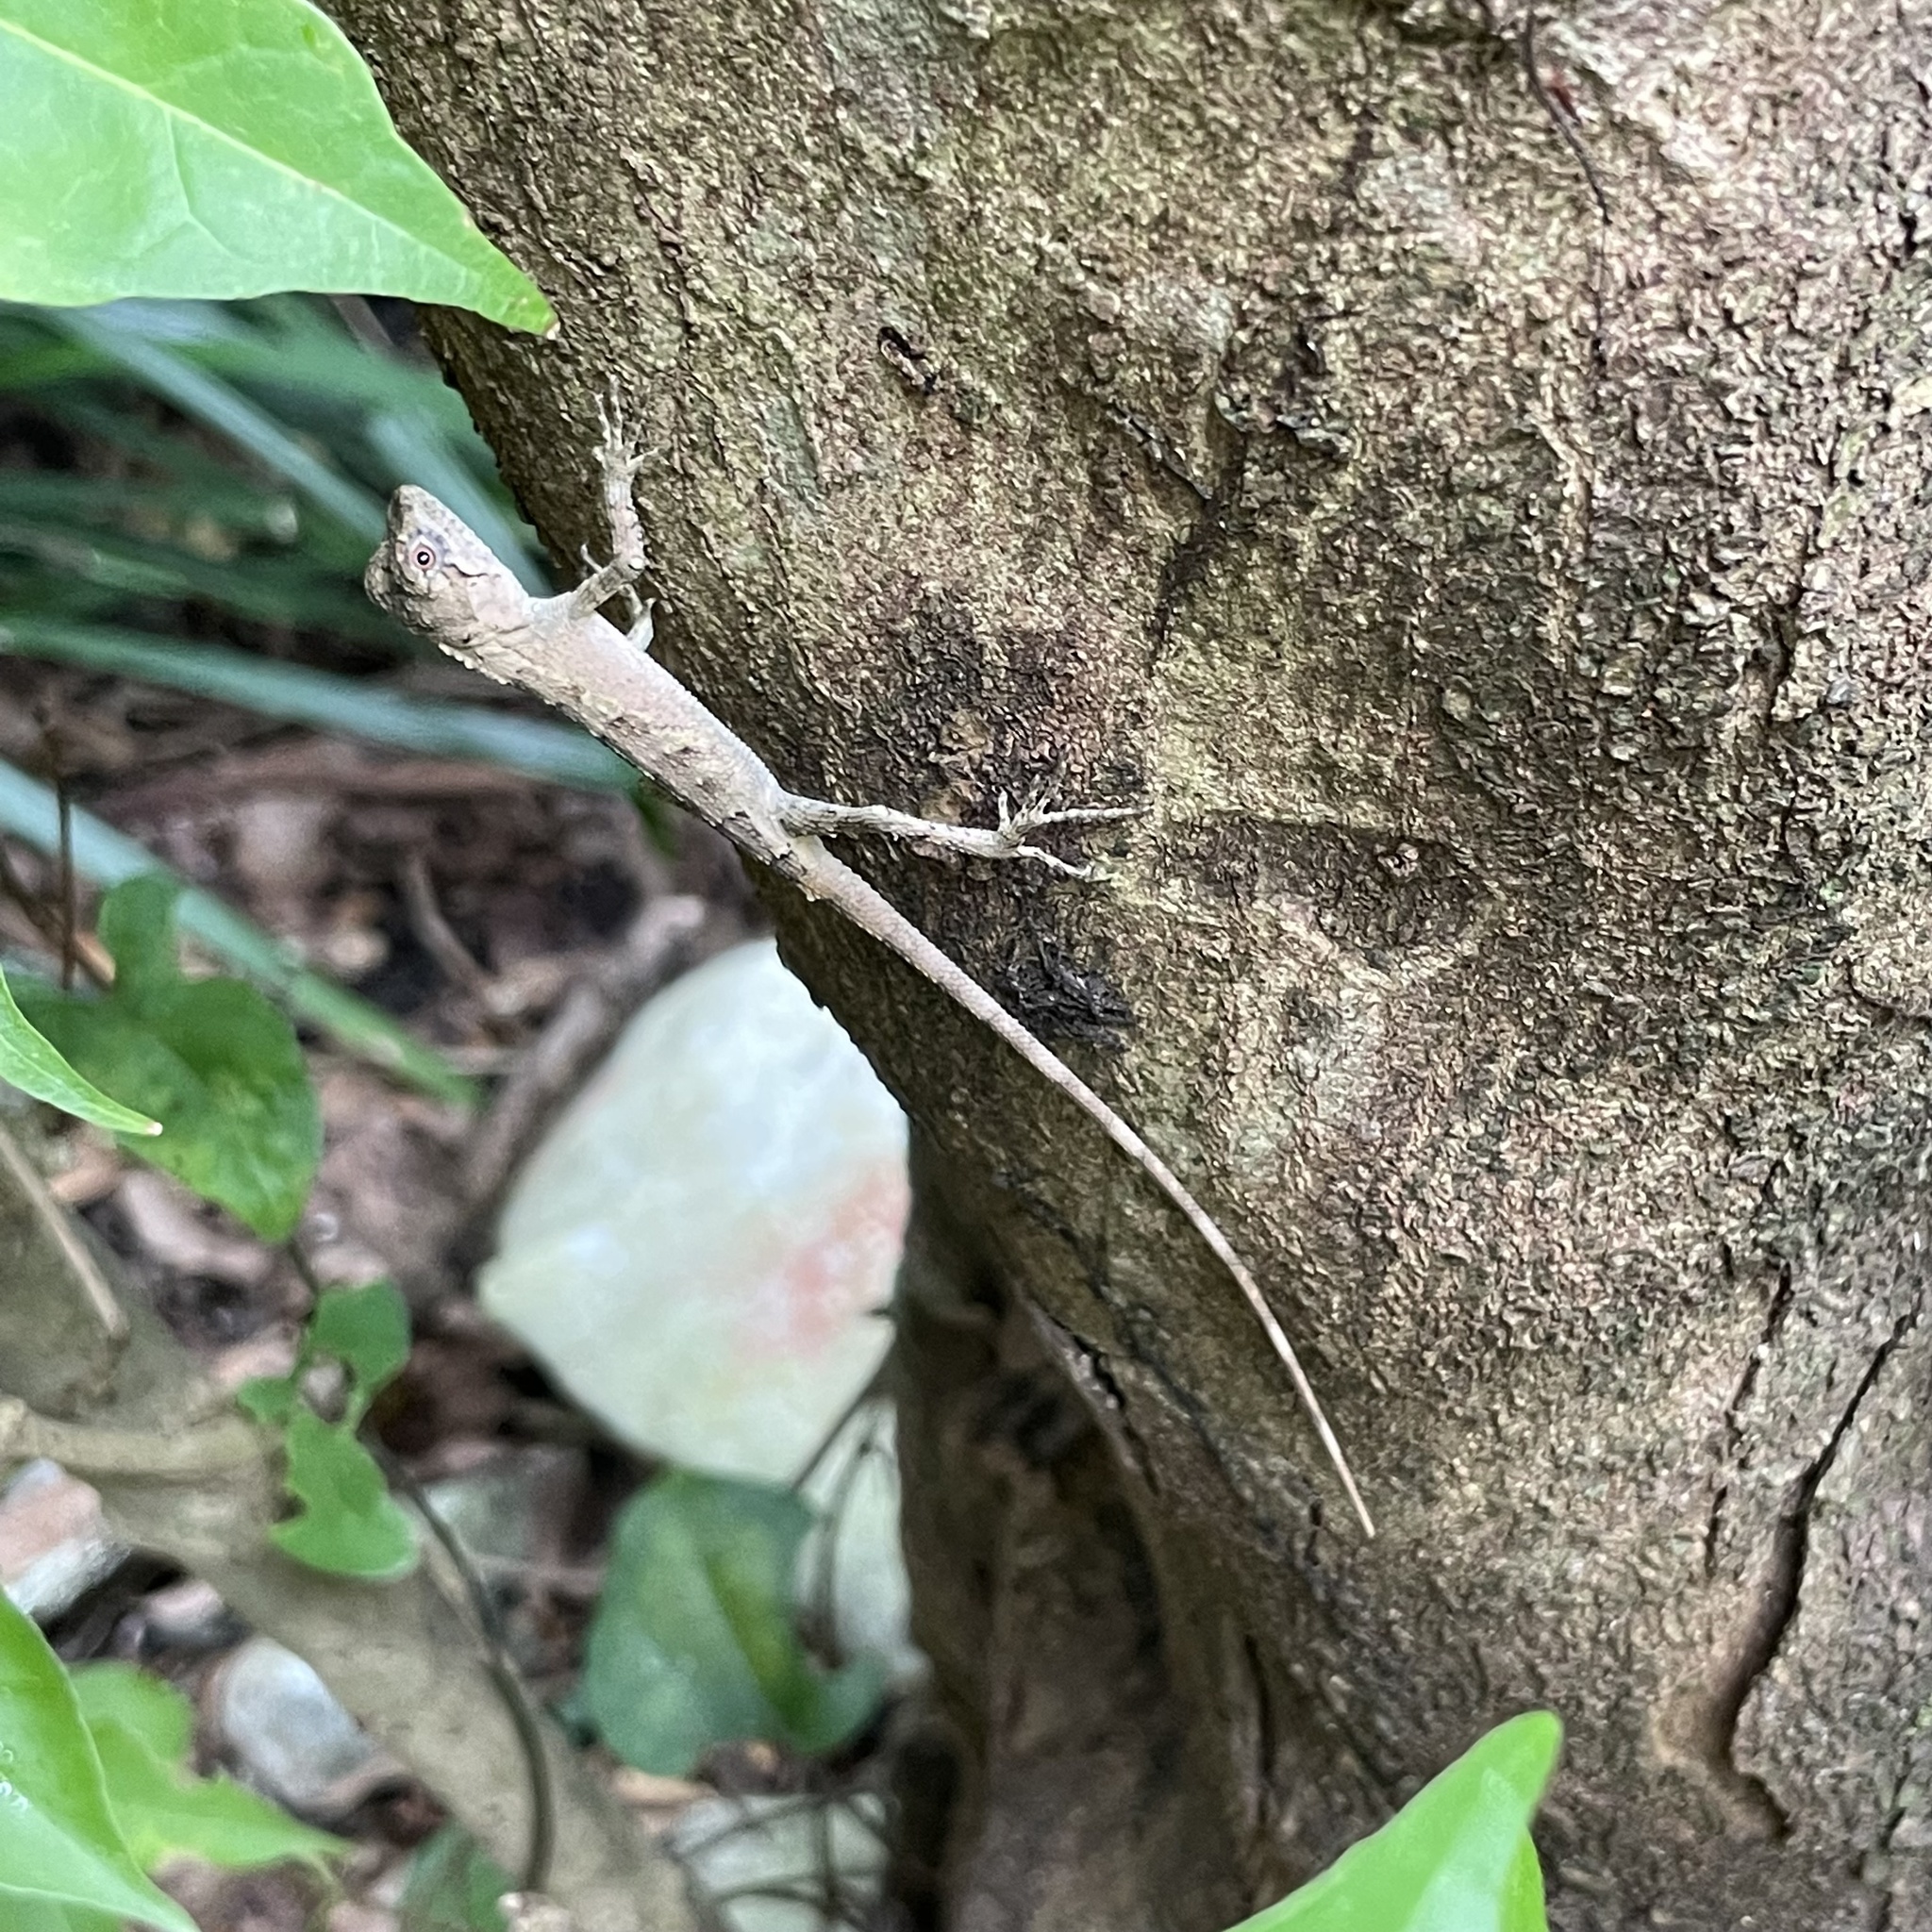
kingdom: Fungi
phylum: Basidiomycota
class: Agaricomycetes
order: Boletales
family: Diplocystidiaceae
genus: Diploderma
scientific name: Diploderma polygonatum
